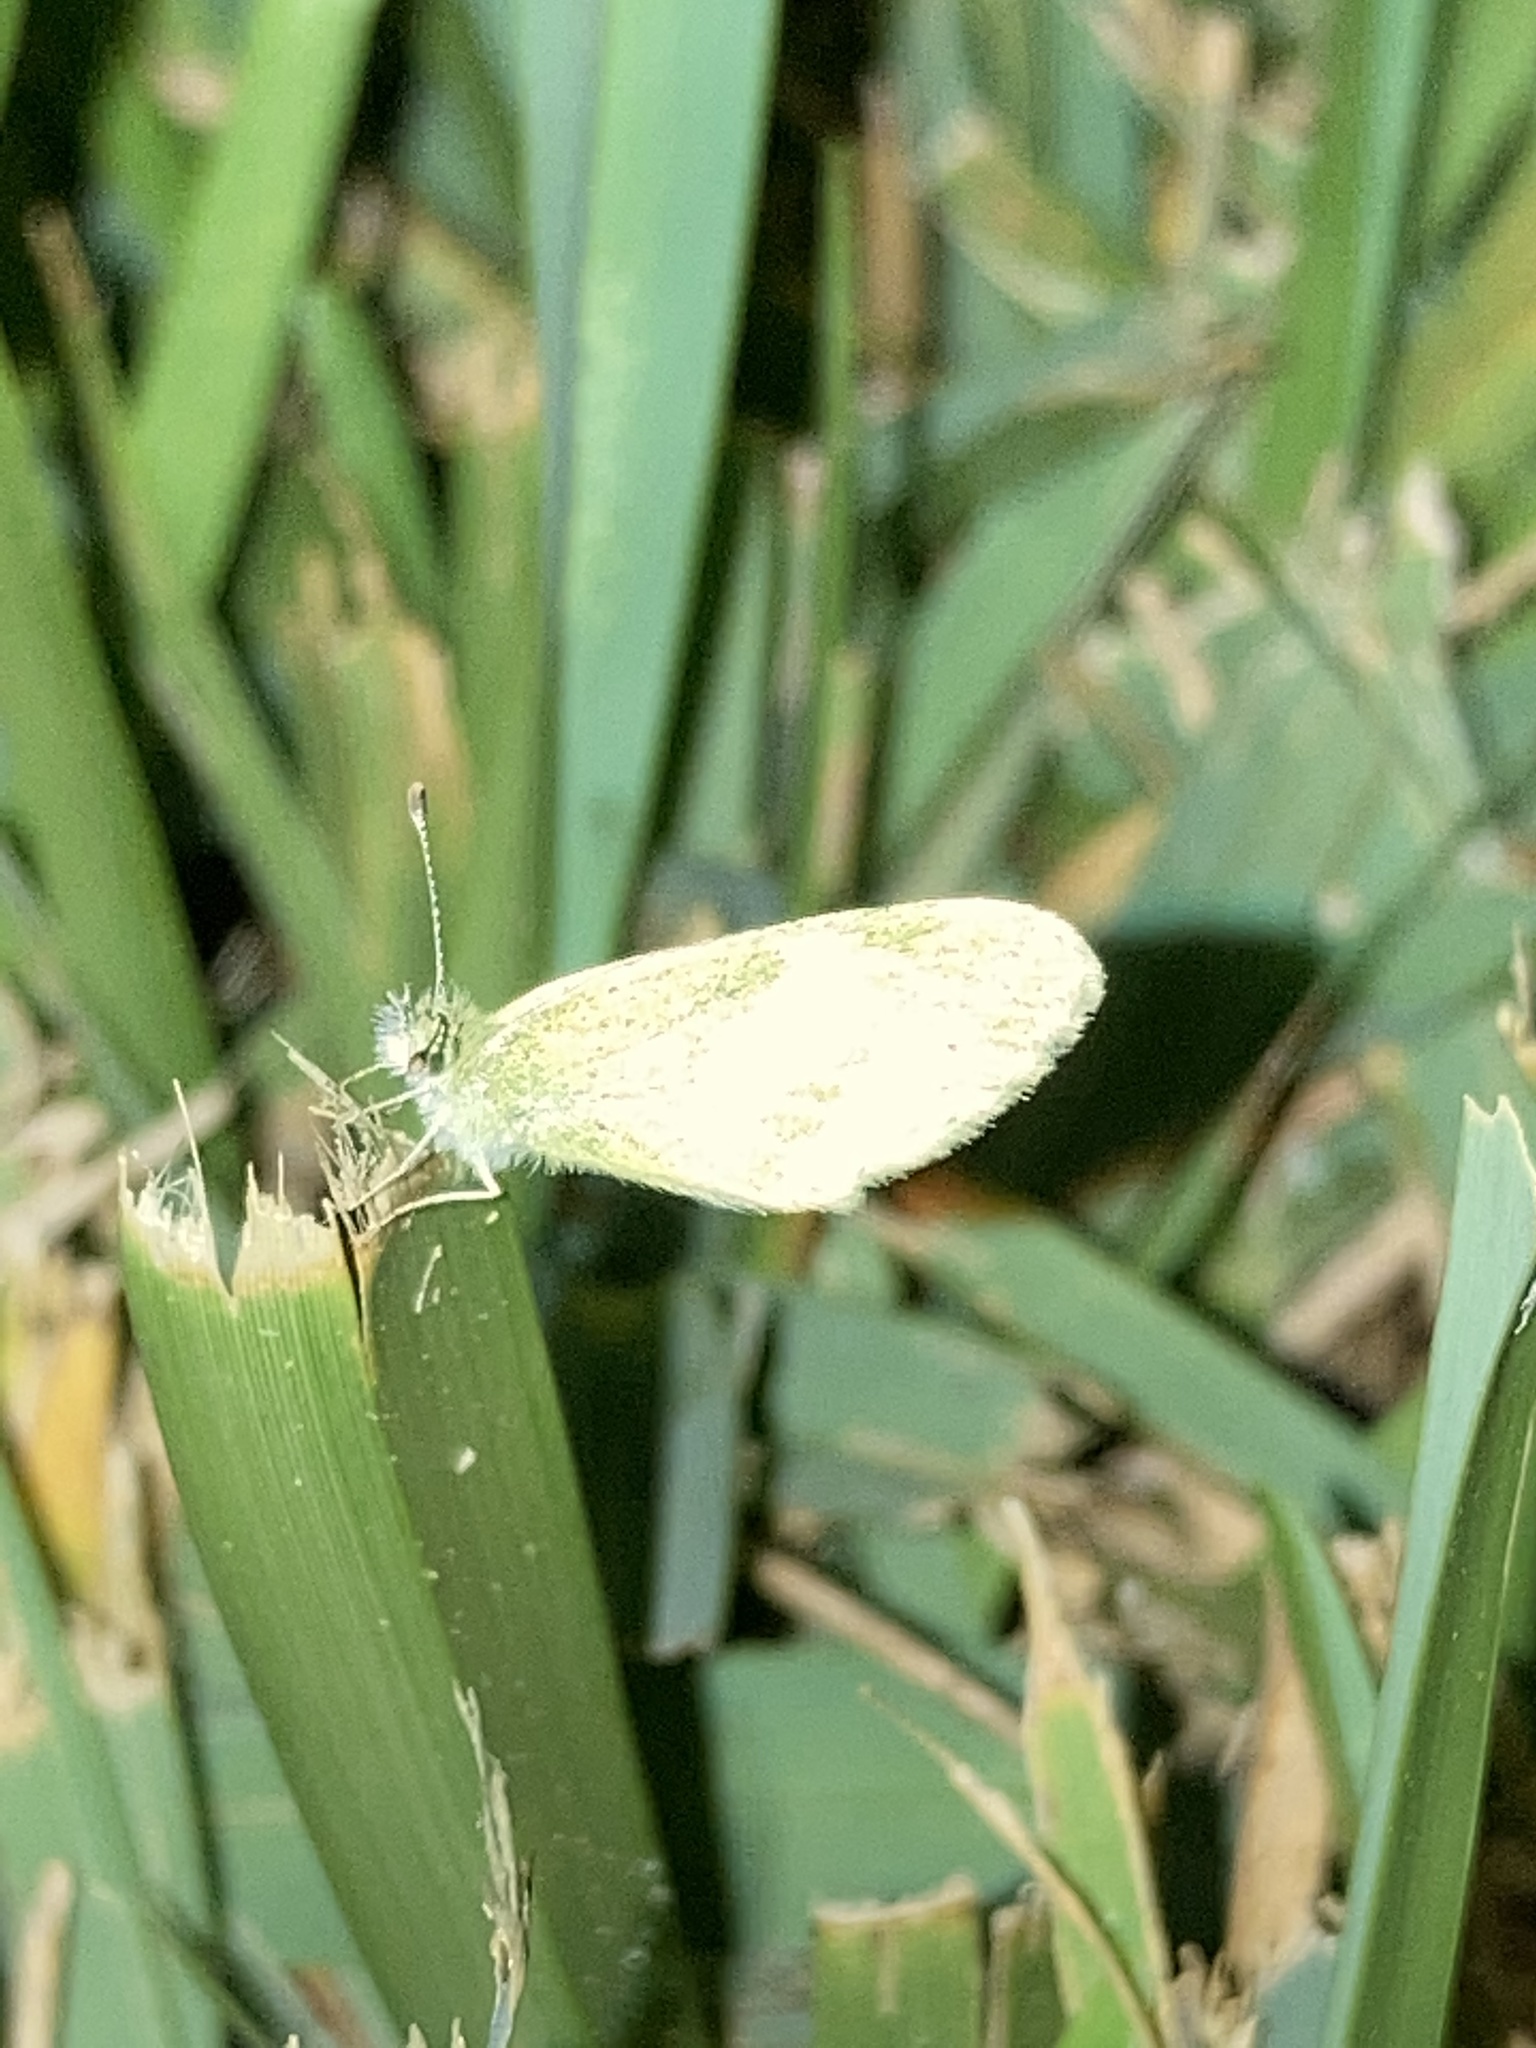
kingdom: Animalia
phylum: Arthropoda
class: Insecta
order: Lepidoptera
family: Pieridae
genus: Nathalis
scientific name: Nathalis iole
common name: Dainty sulphur
